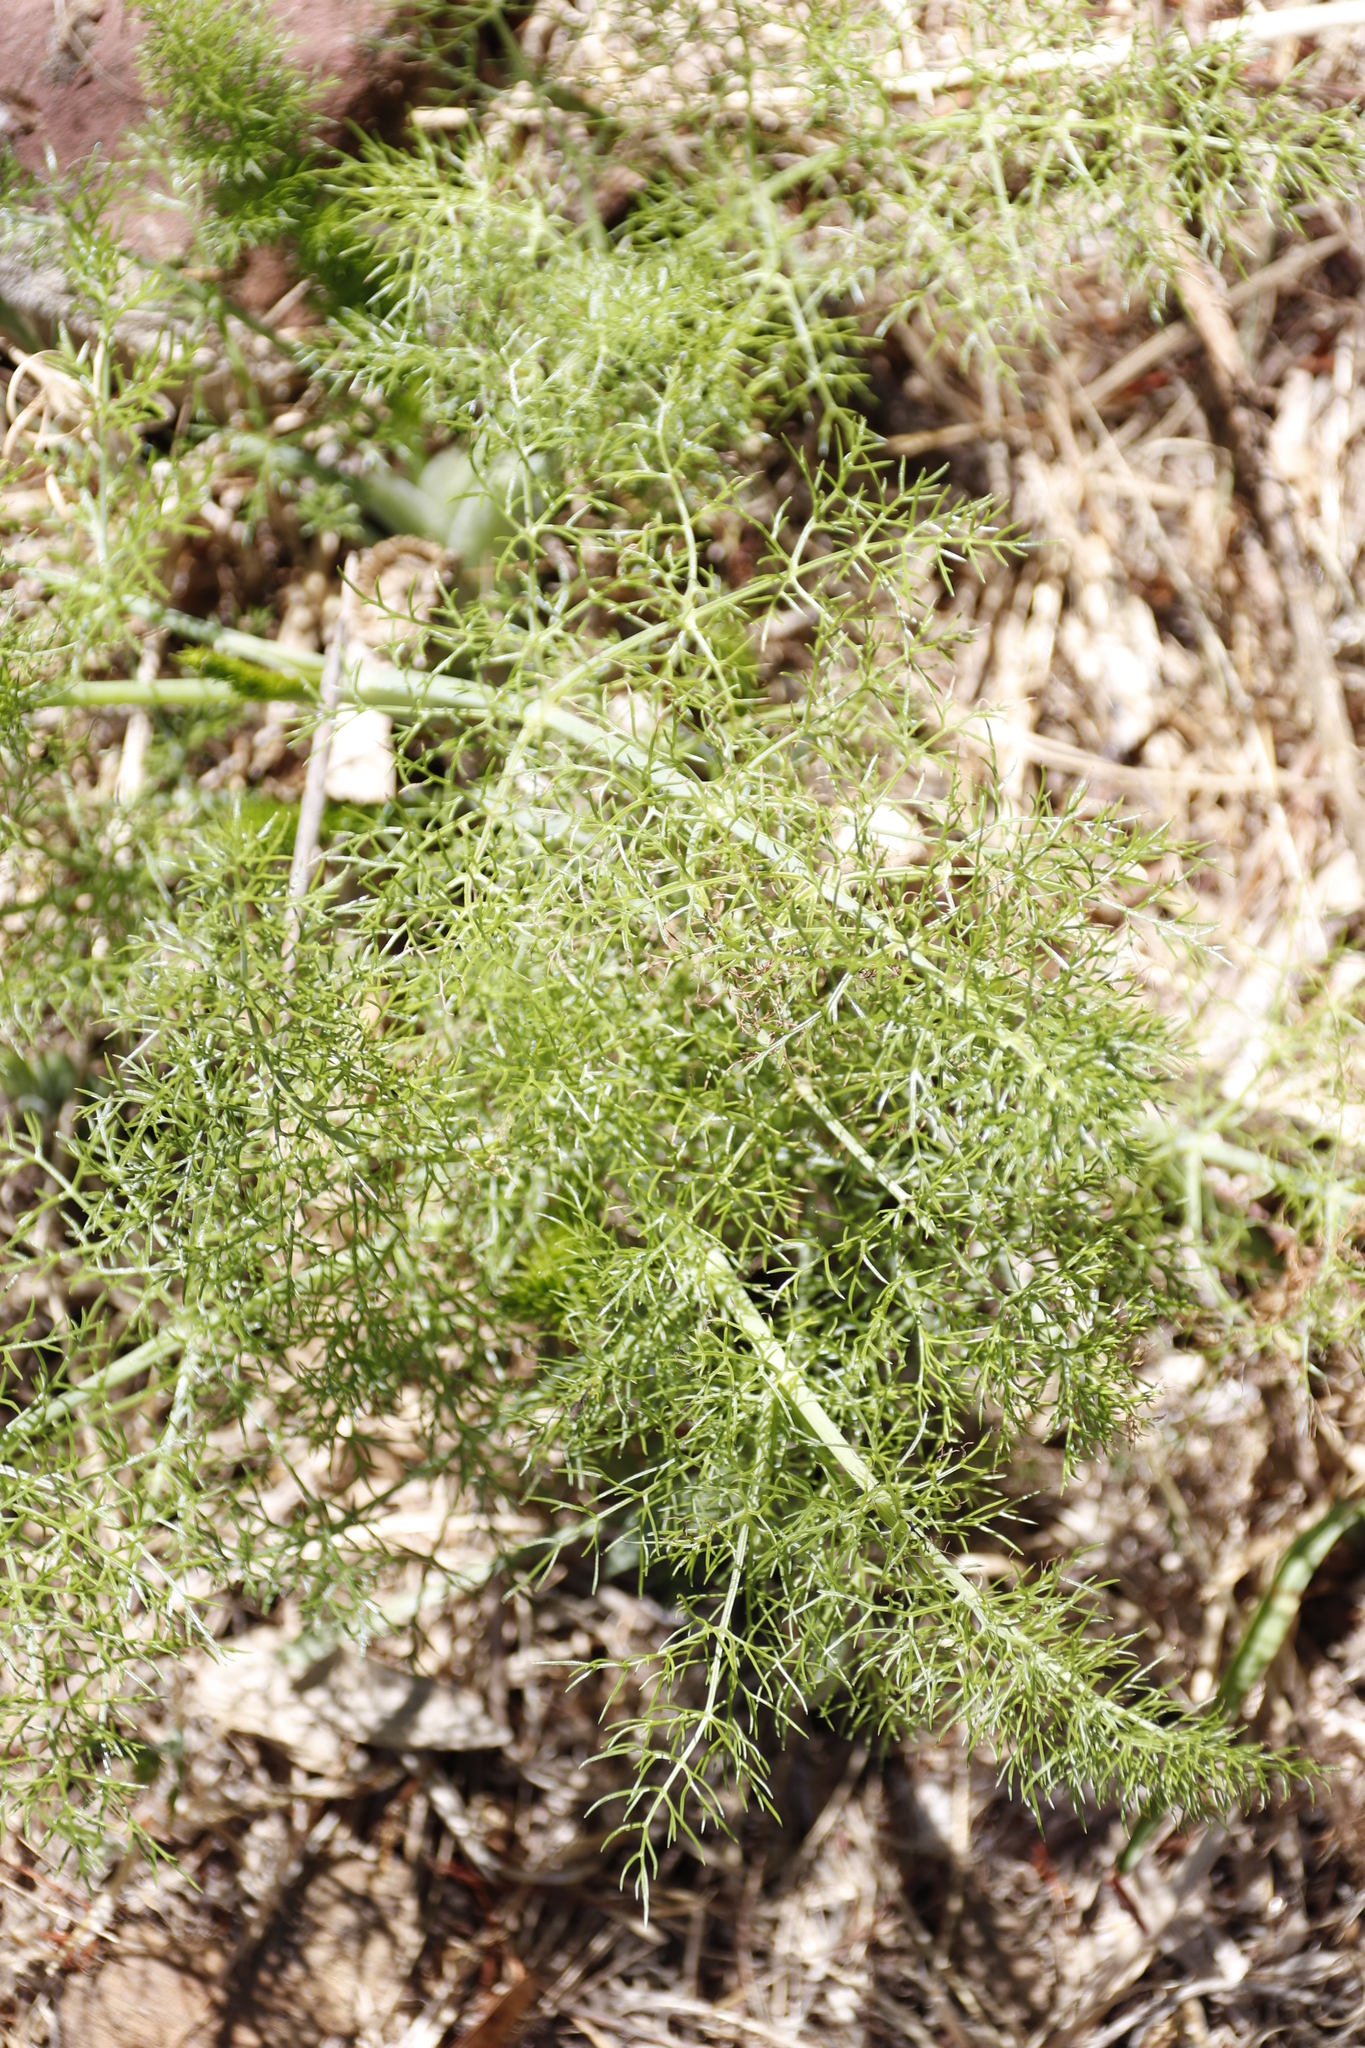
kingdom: Plantae
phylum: Tracheophyta
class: Magnoliopsida
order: Apiales
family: Apiaceae
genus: Foeniculum
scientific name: Foeniculum vulgare
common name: Fennel
